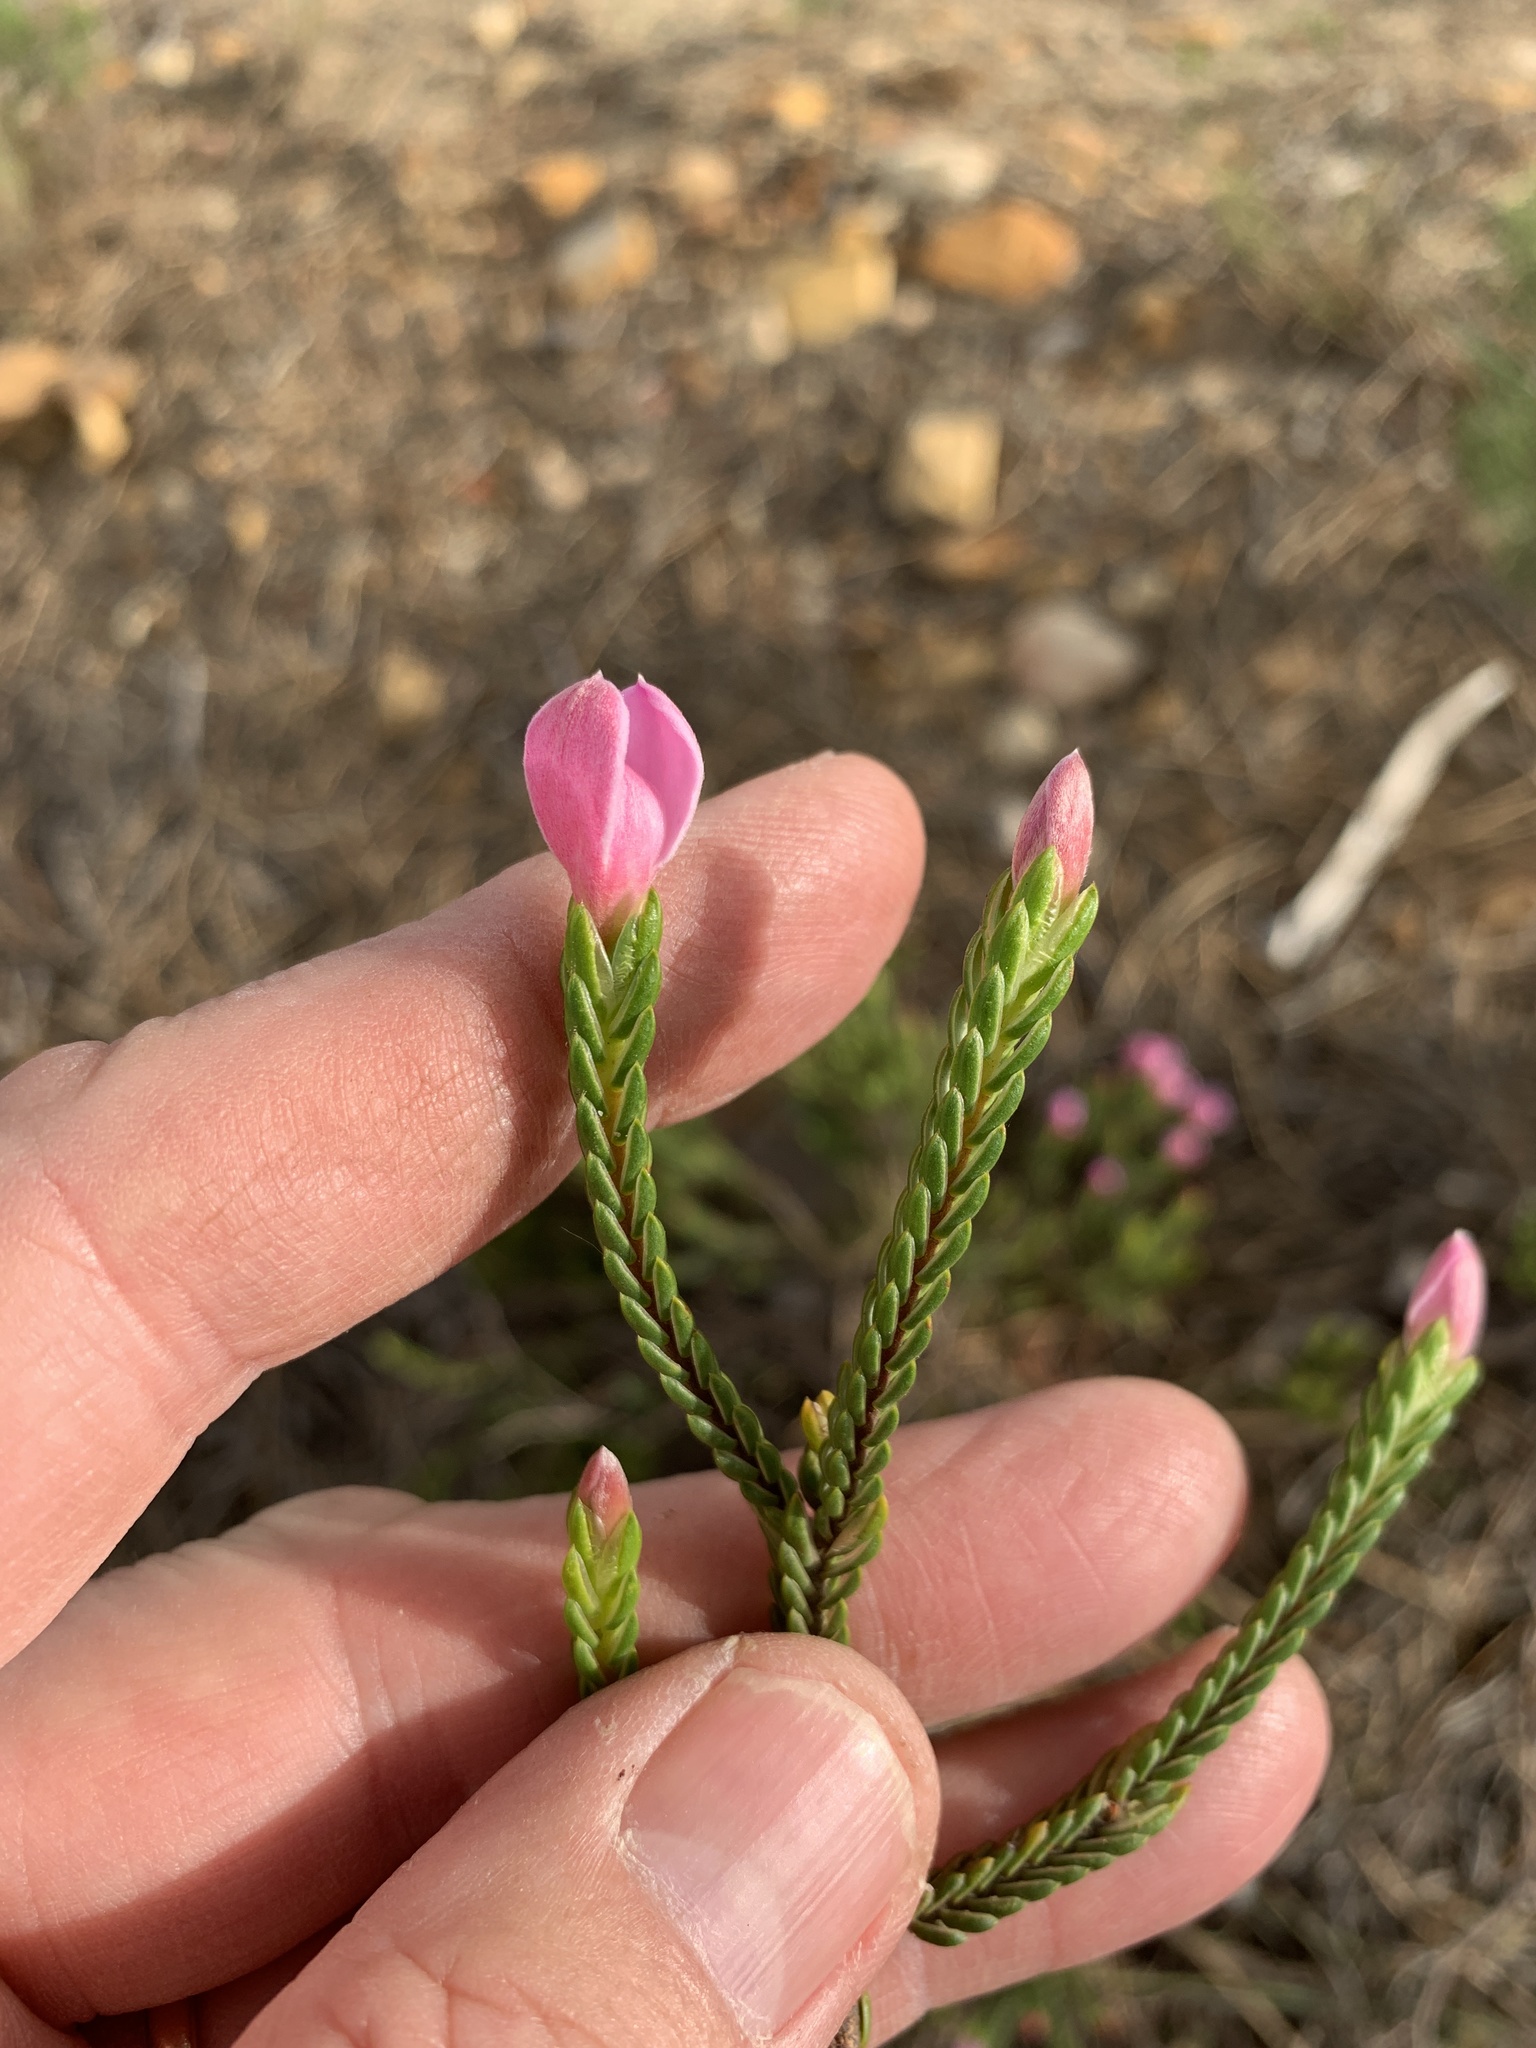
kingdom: Plantae
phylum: Tracheophyta
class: Magnoliopsida
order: Malvales
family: Thymelaeaceae
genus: Lachnaea
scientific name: Lachnaea grandiflora
